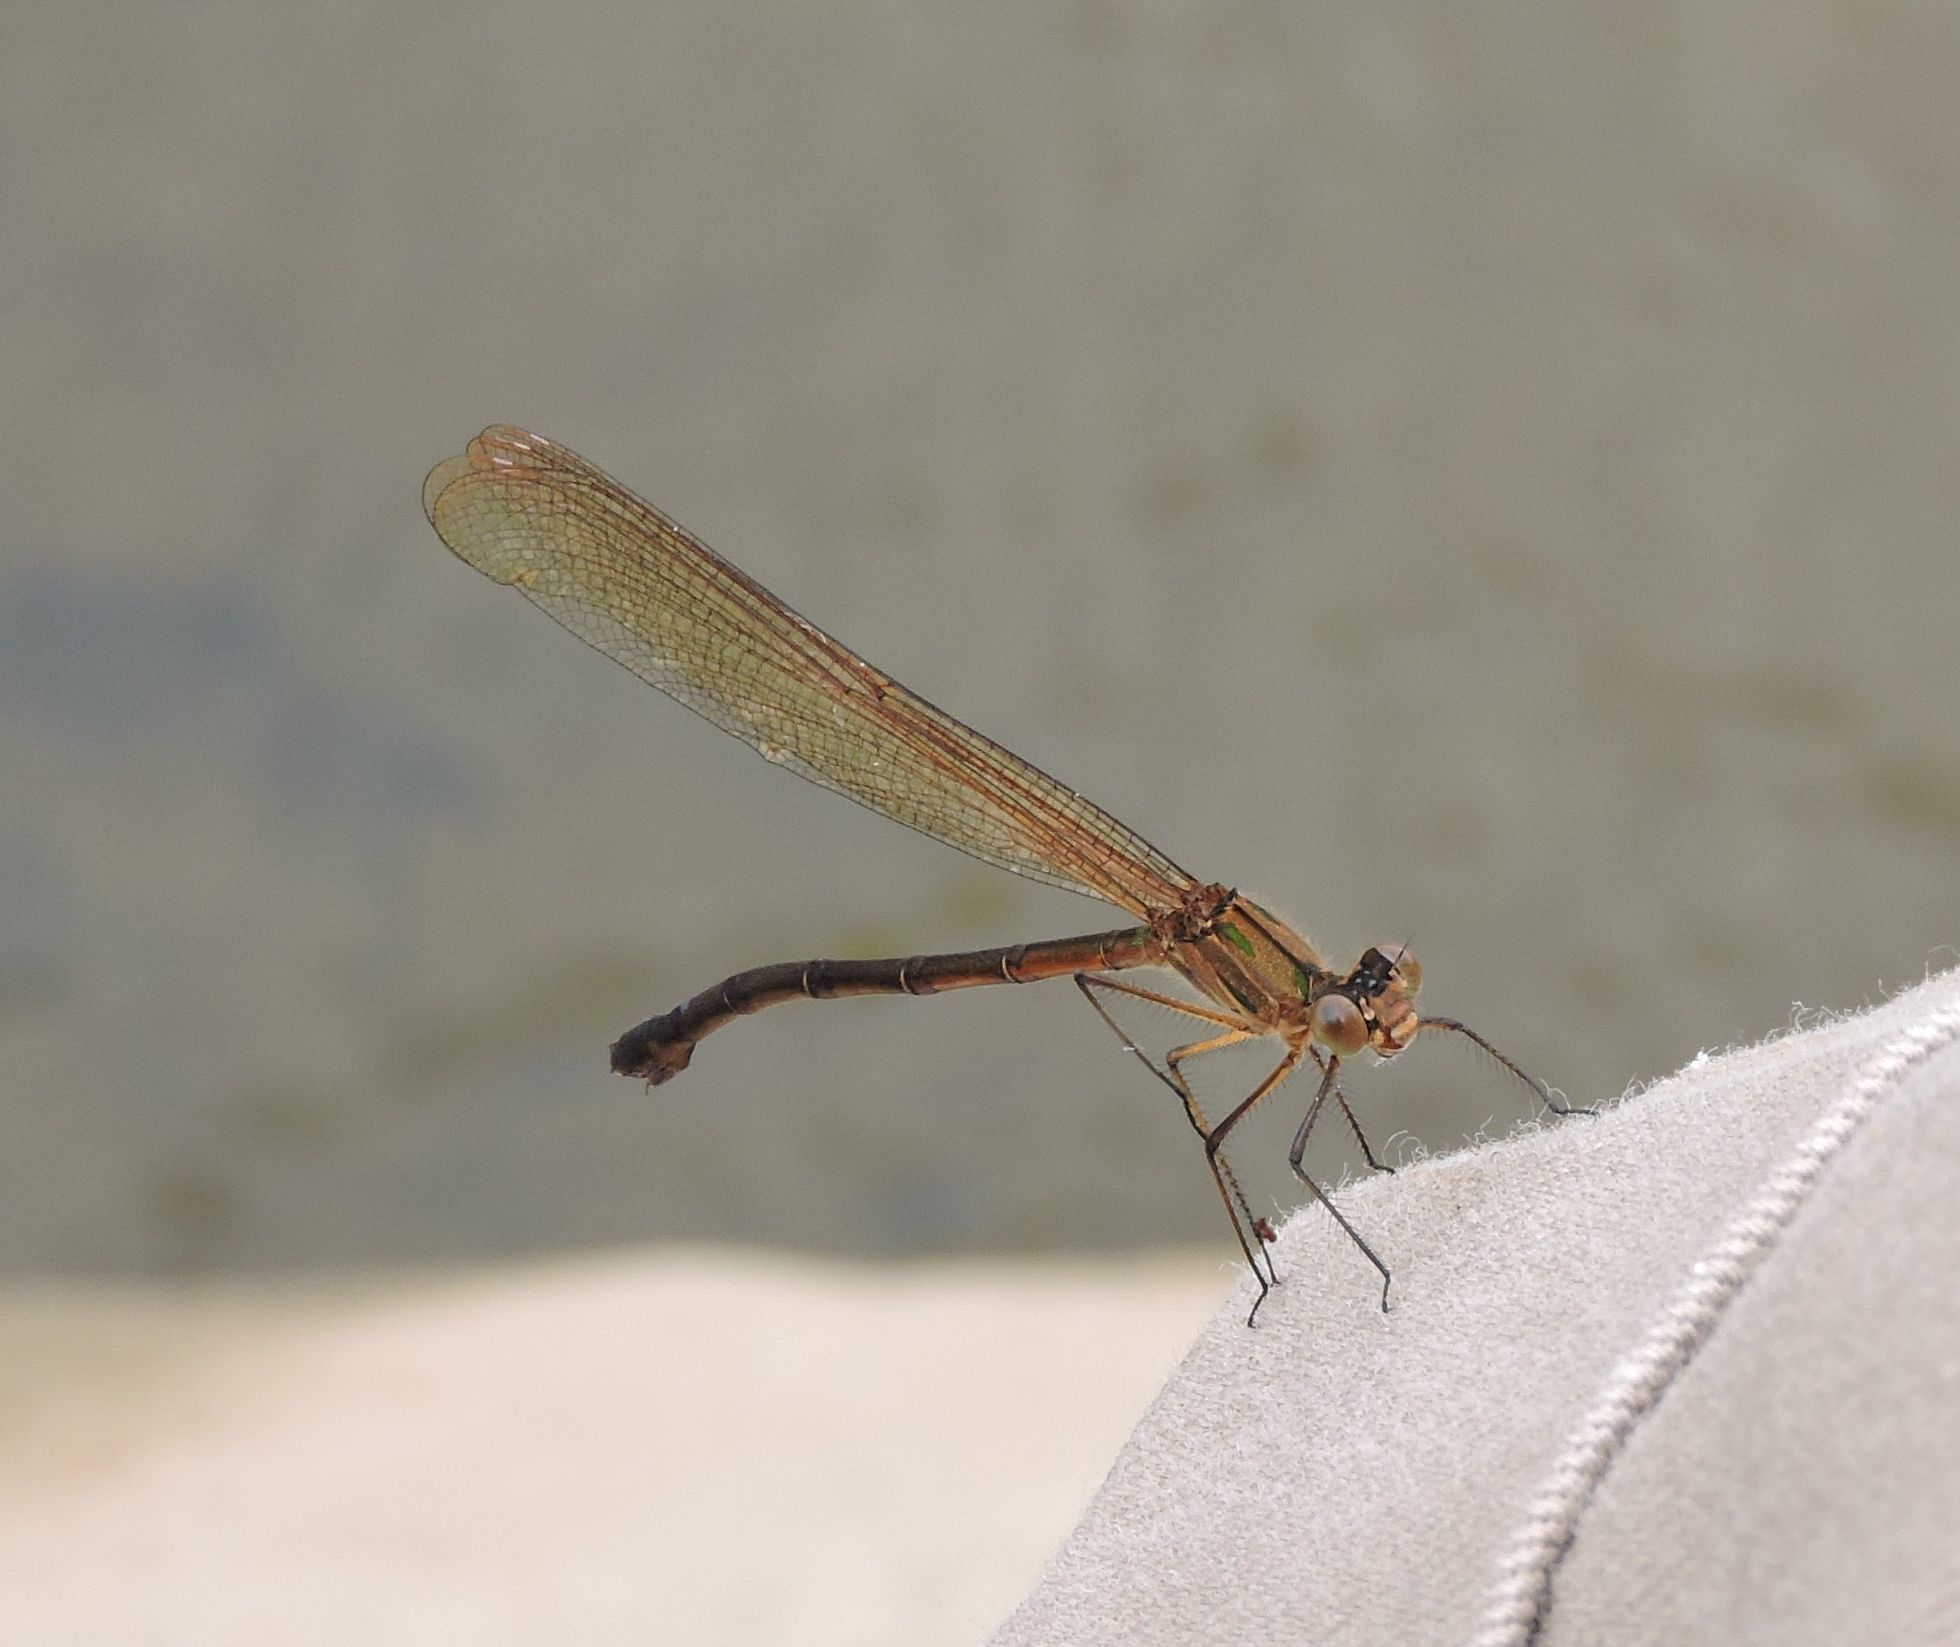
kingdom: Animalia
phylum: Arthropoda
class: Insecta
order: Odonata
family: Calopterygidae
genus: Hetaerina
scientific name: Hetaerina americana
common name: American rubyspot
